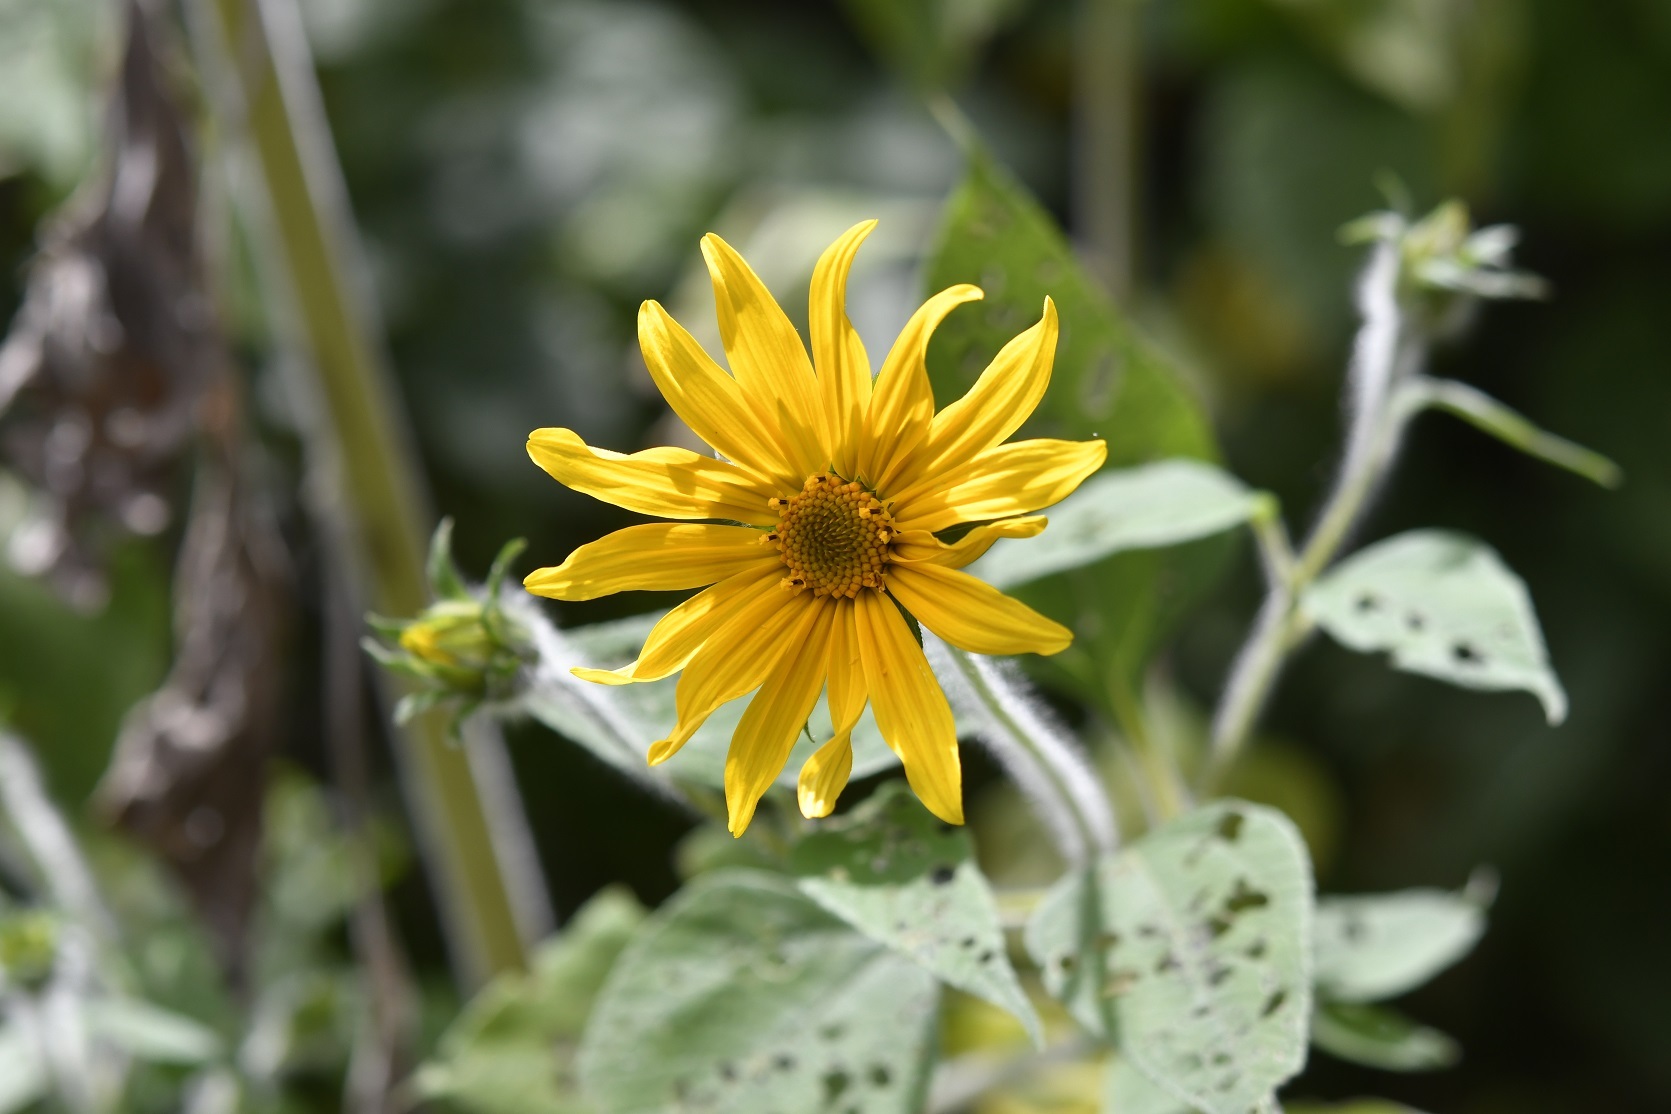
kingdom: Plantae
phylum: Tracheophyta
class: Magnoliopsida
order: Asterales
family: Asteraceae
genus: Tithonia
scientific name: Tithonia tubaeformis
